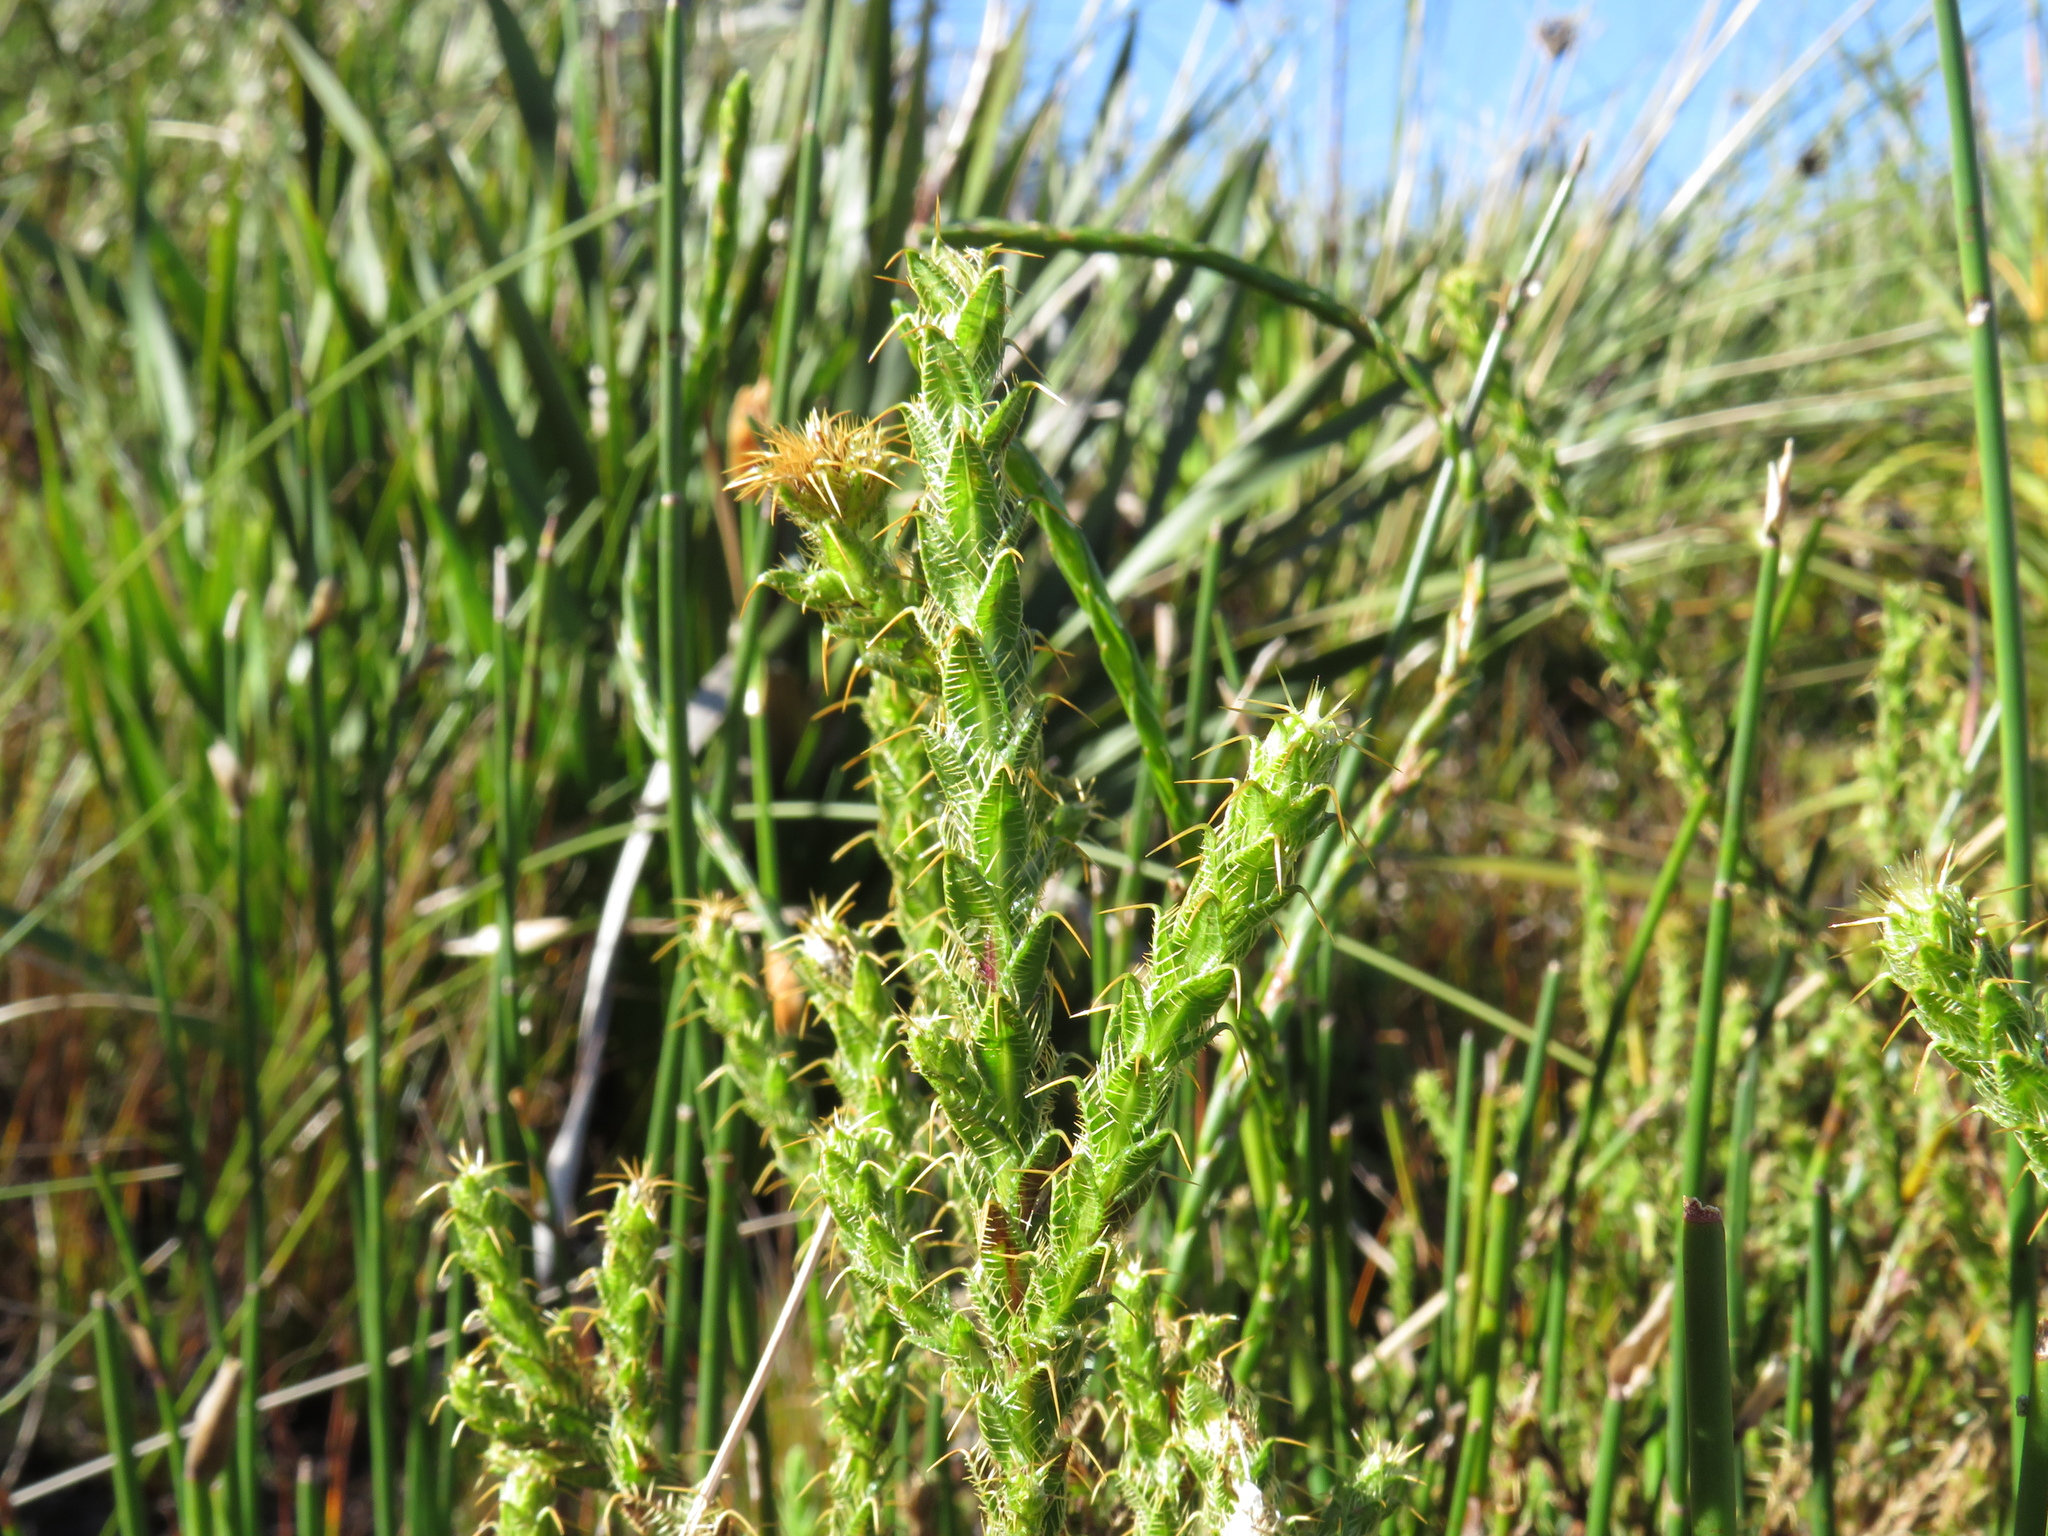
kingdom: Plantae
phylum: Tracheophyta
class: Magnoliopsida
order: Asterales
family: Asteraceae
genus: Cullumia
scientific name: Cullumia reticulata
